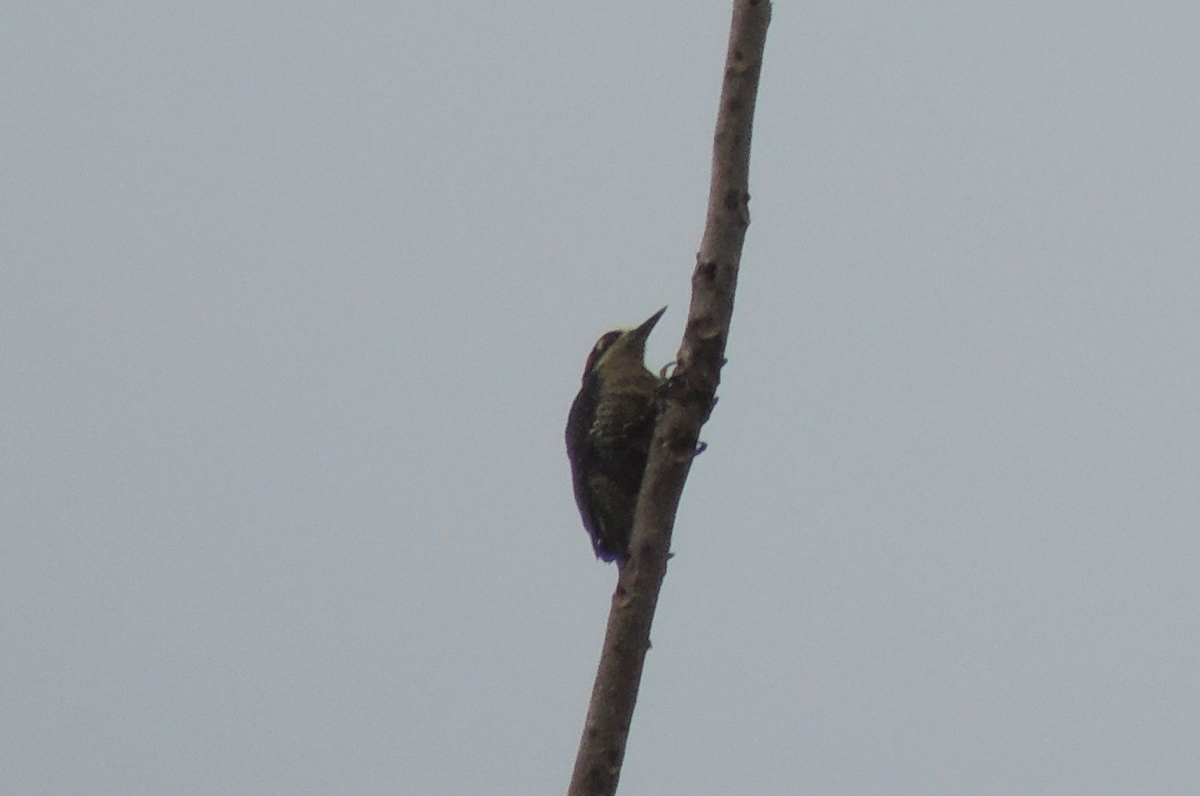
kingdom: Animalia
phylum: Chordata
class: Aves
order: Piciformes
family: Picidae
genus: Melanerpes
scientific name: Melanerpes pucherani
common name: Black-cheeked woodpecker
